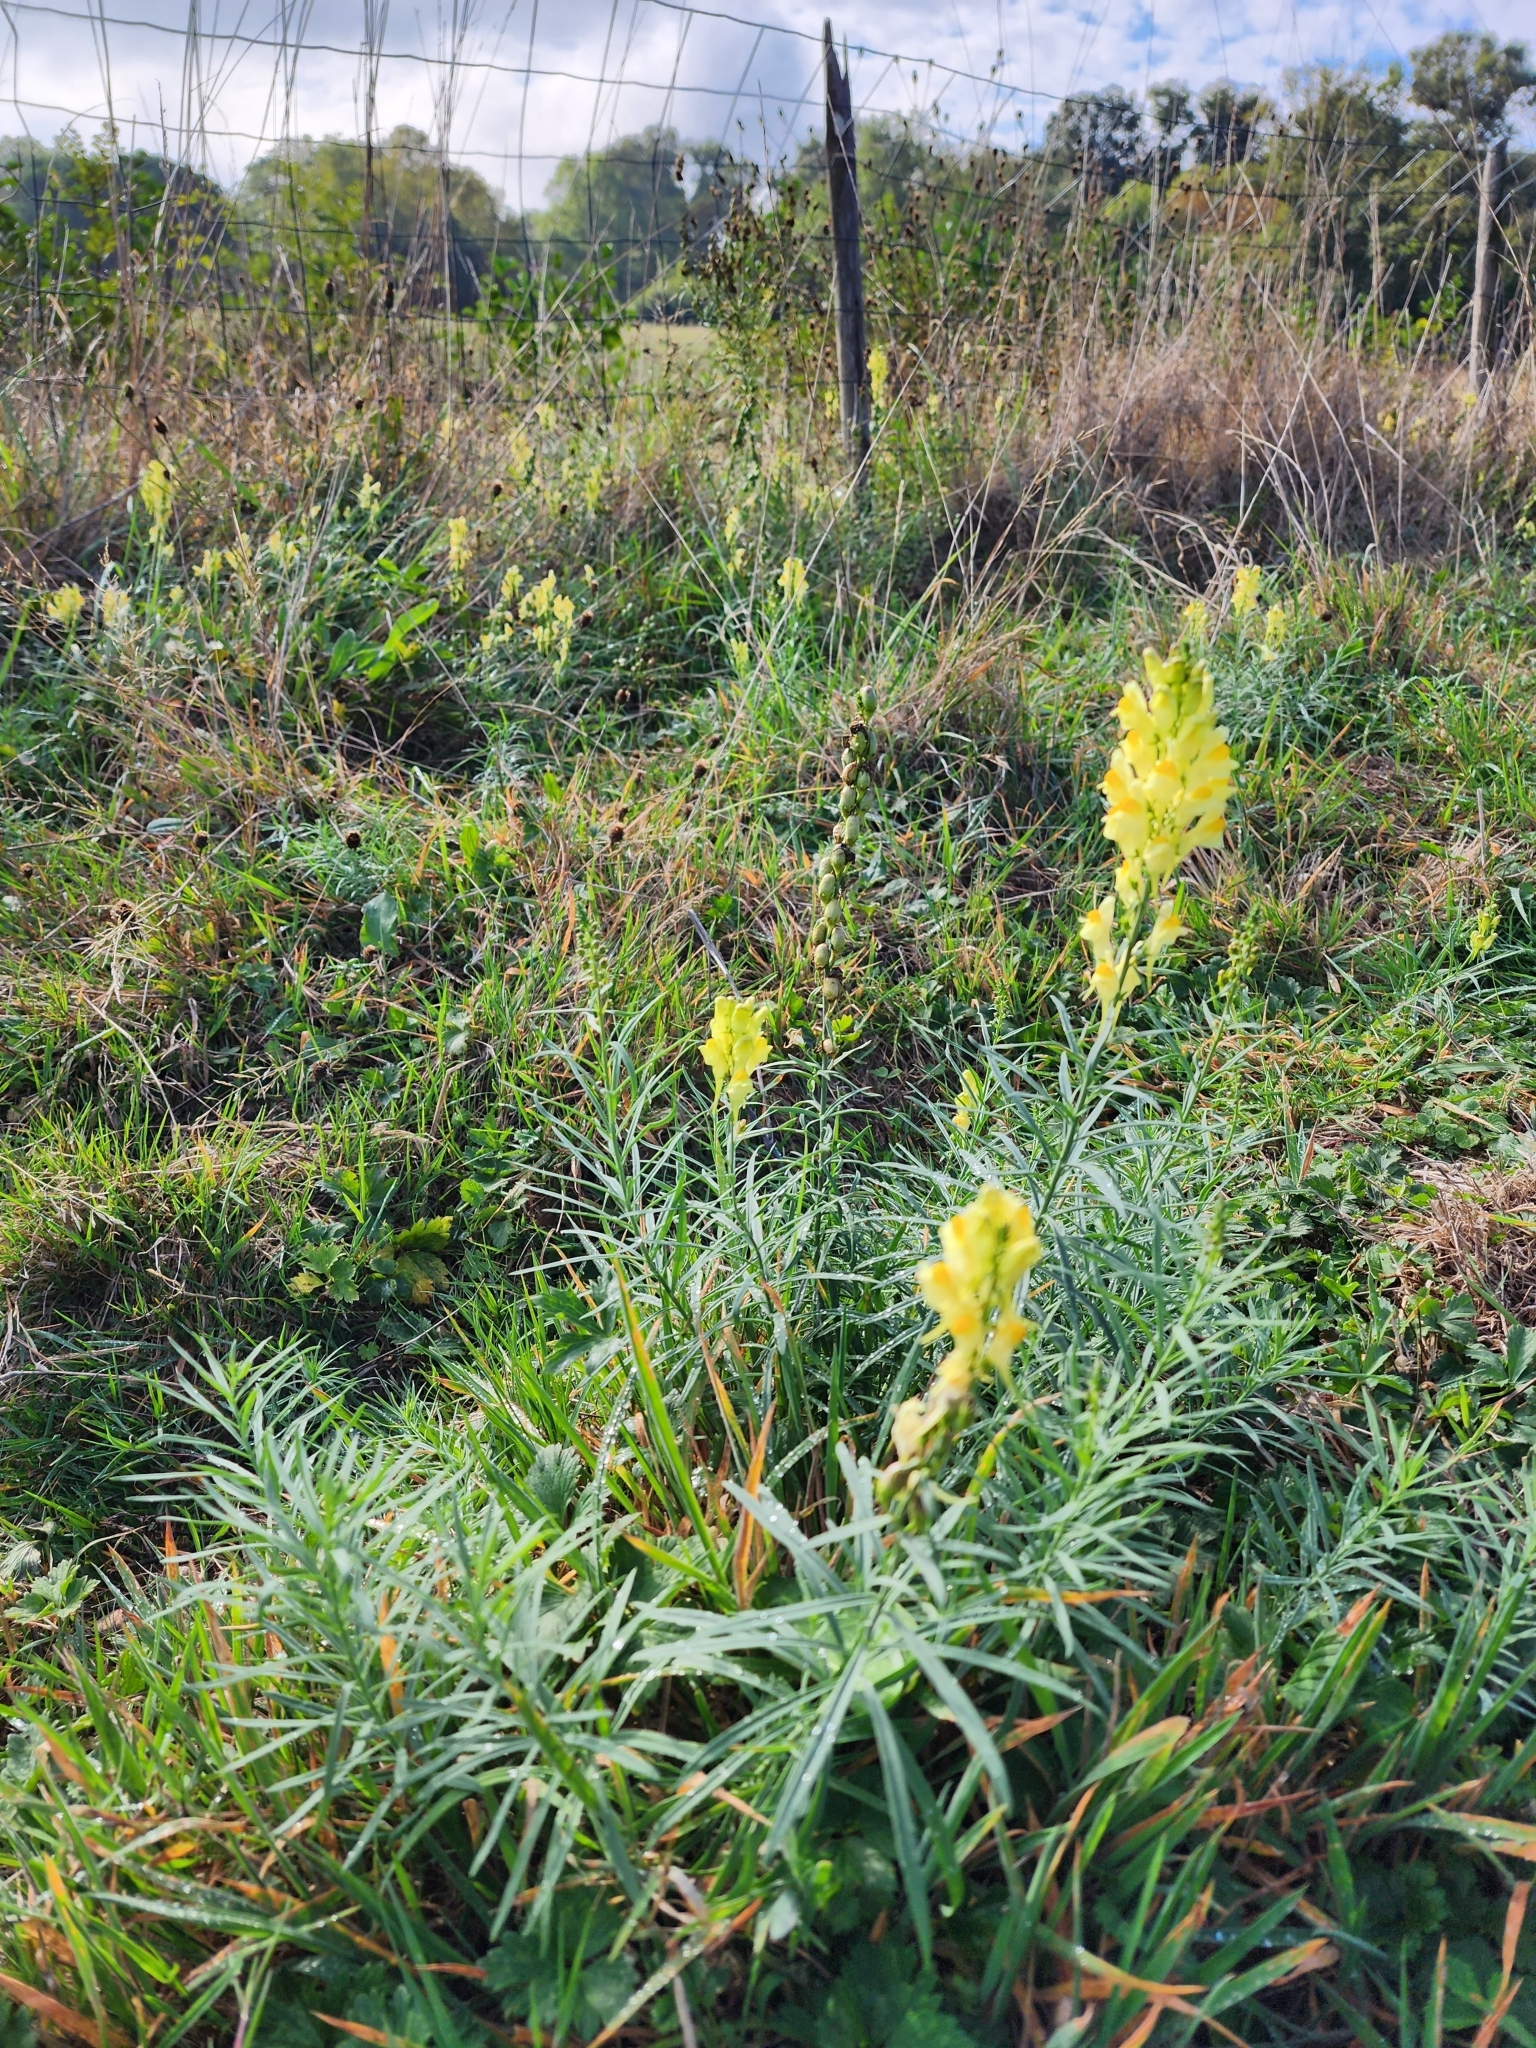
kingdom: Plantae
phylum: Tracheophyta
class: Magnoliopsida
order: Lamiales
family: Plantaginaceae
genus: Linaria
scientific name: Linaria vulgaris
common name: Butter and eggs
